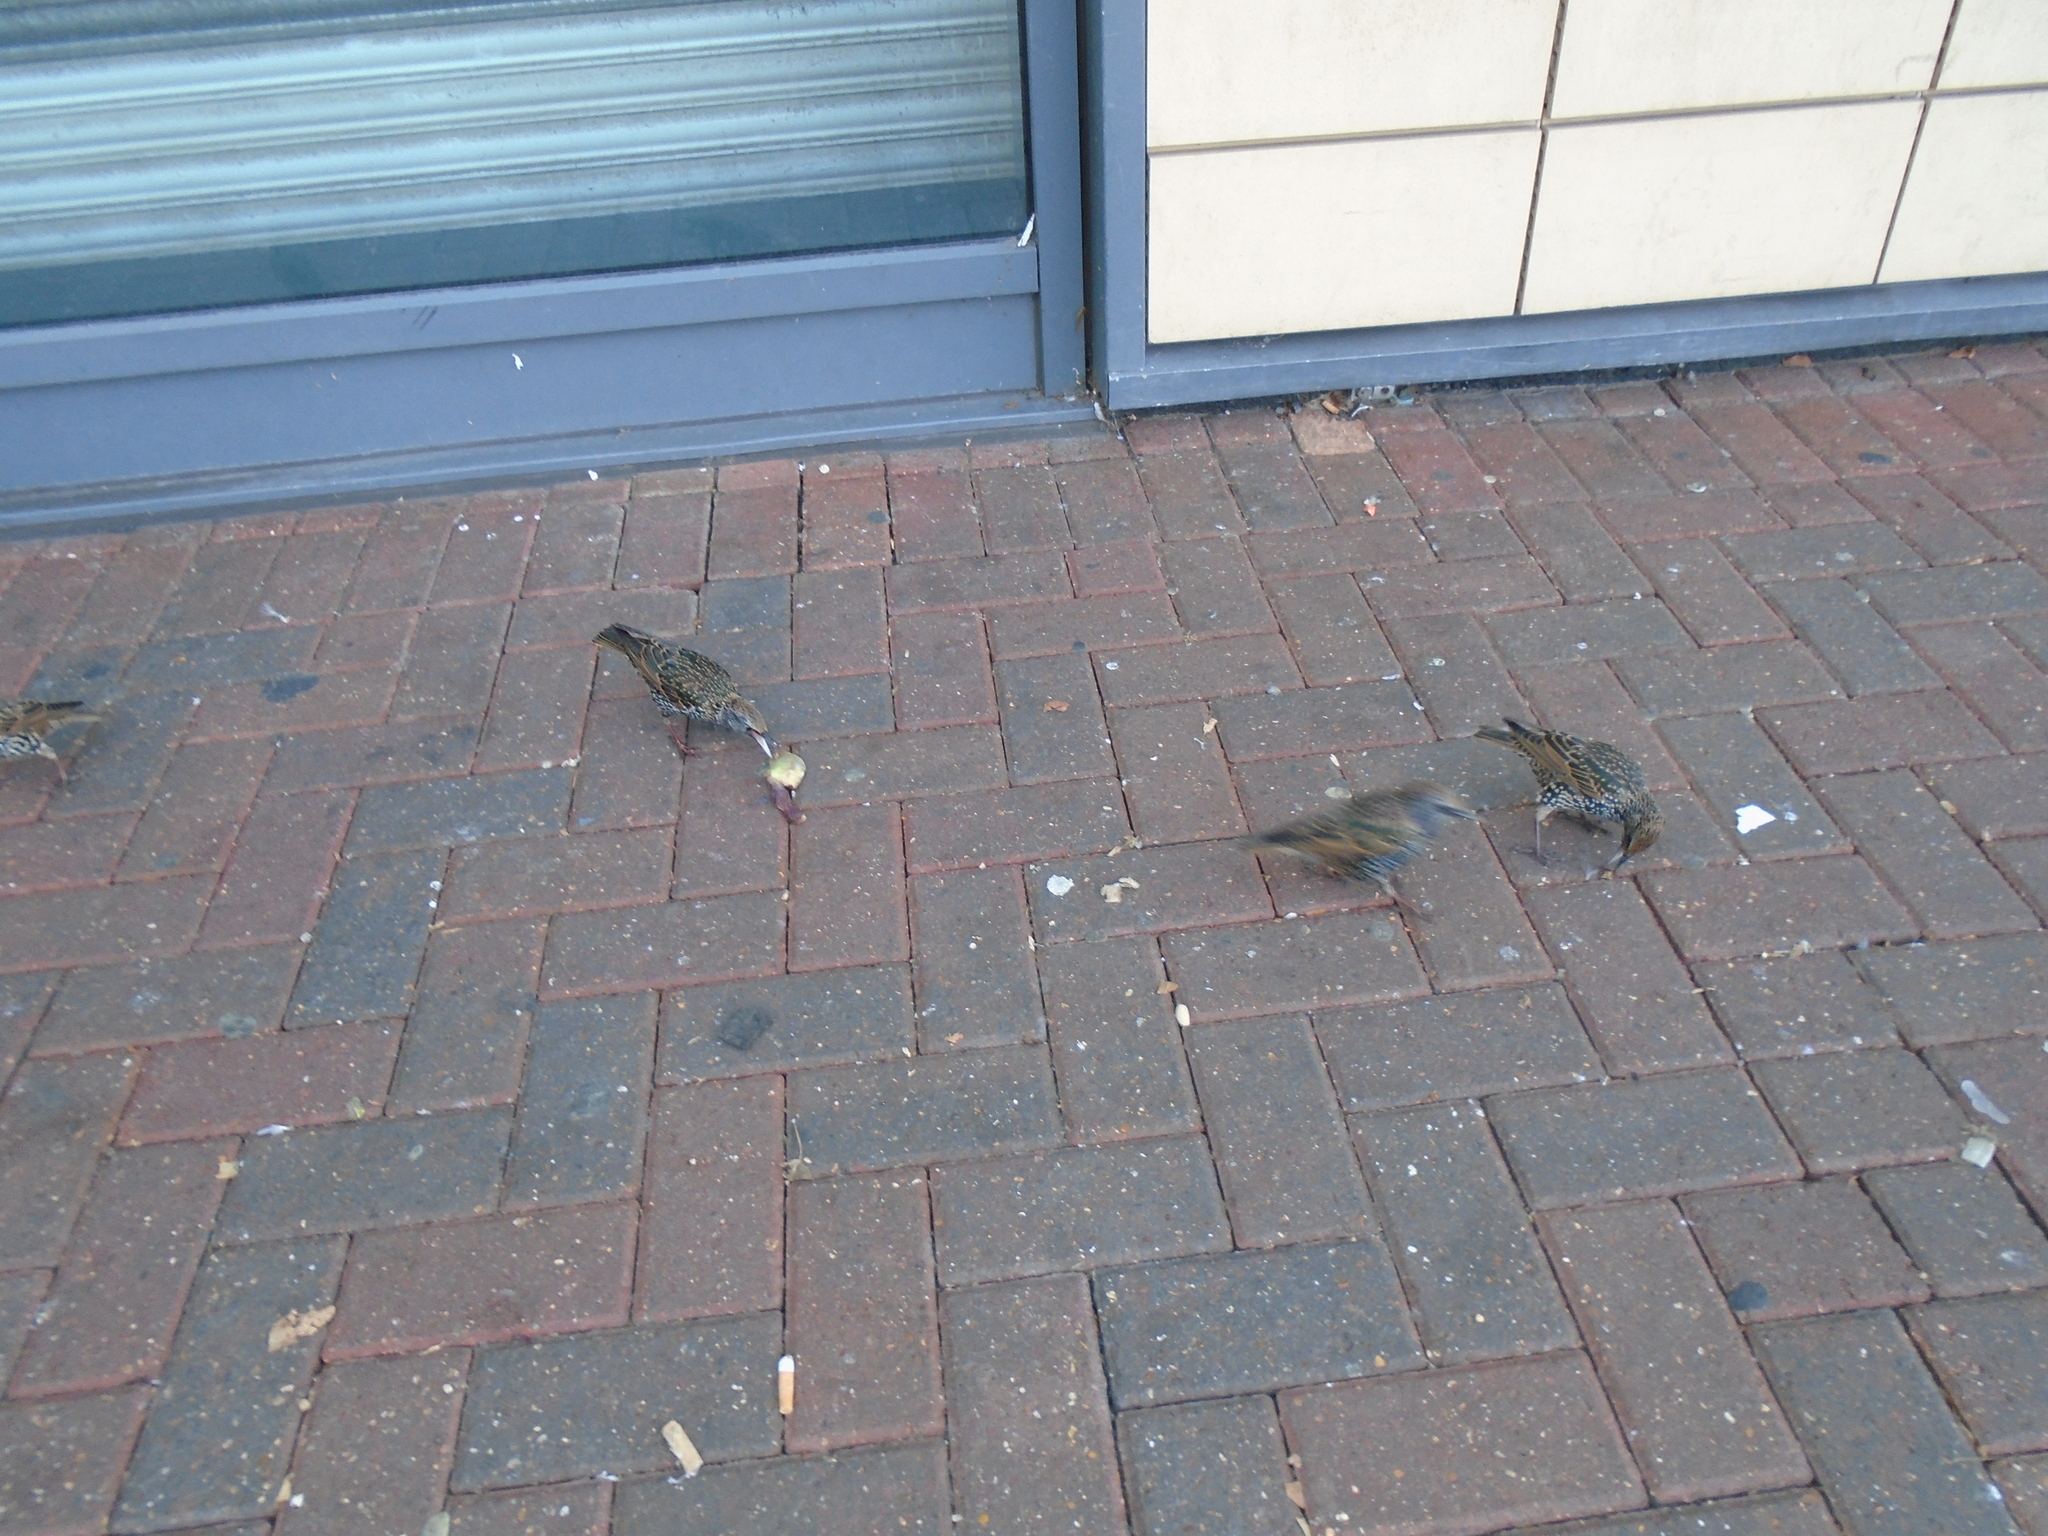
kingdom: Animalia
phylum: Chordata
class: Aves
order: Passeriformes
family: Sturnidae
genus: Sturnus
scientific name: Sturnus vulgaris
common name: Common starling
